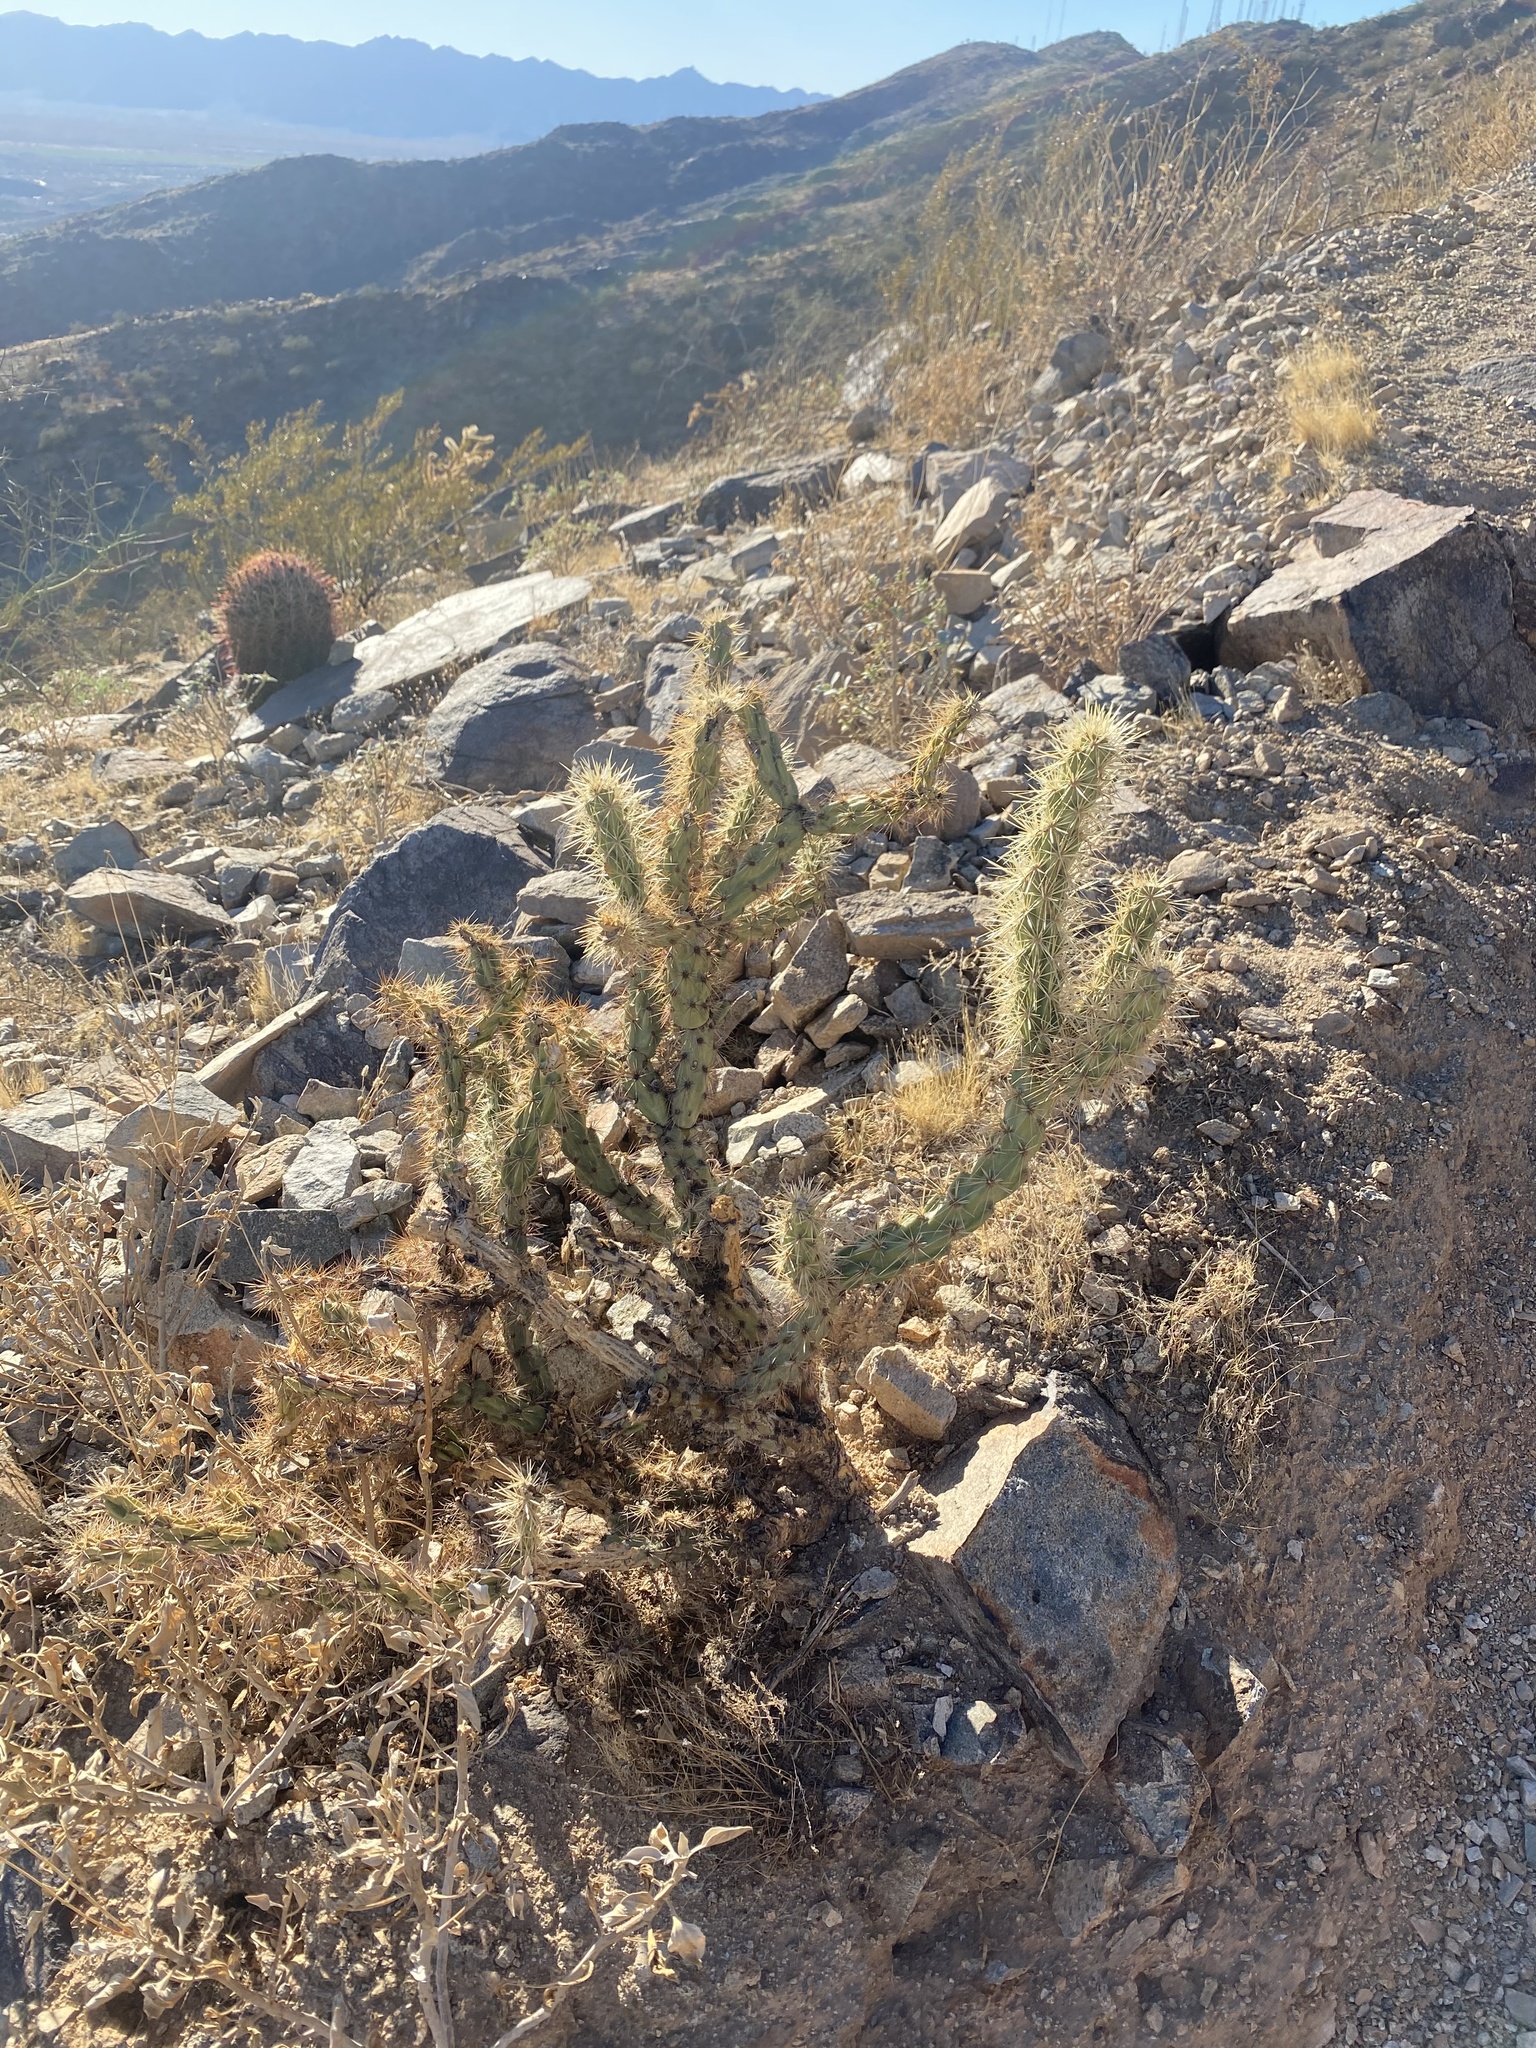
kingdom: Plantae
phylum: Tracheophyta
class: Magnoliopsida
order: Caryophyllales
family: Cactaceae
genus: Cylindropuntia
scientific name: Cylindropuntia acanthocarpa
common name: Buckhorn cholla
